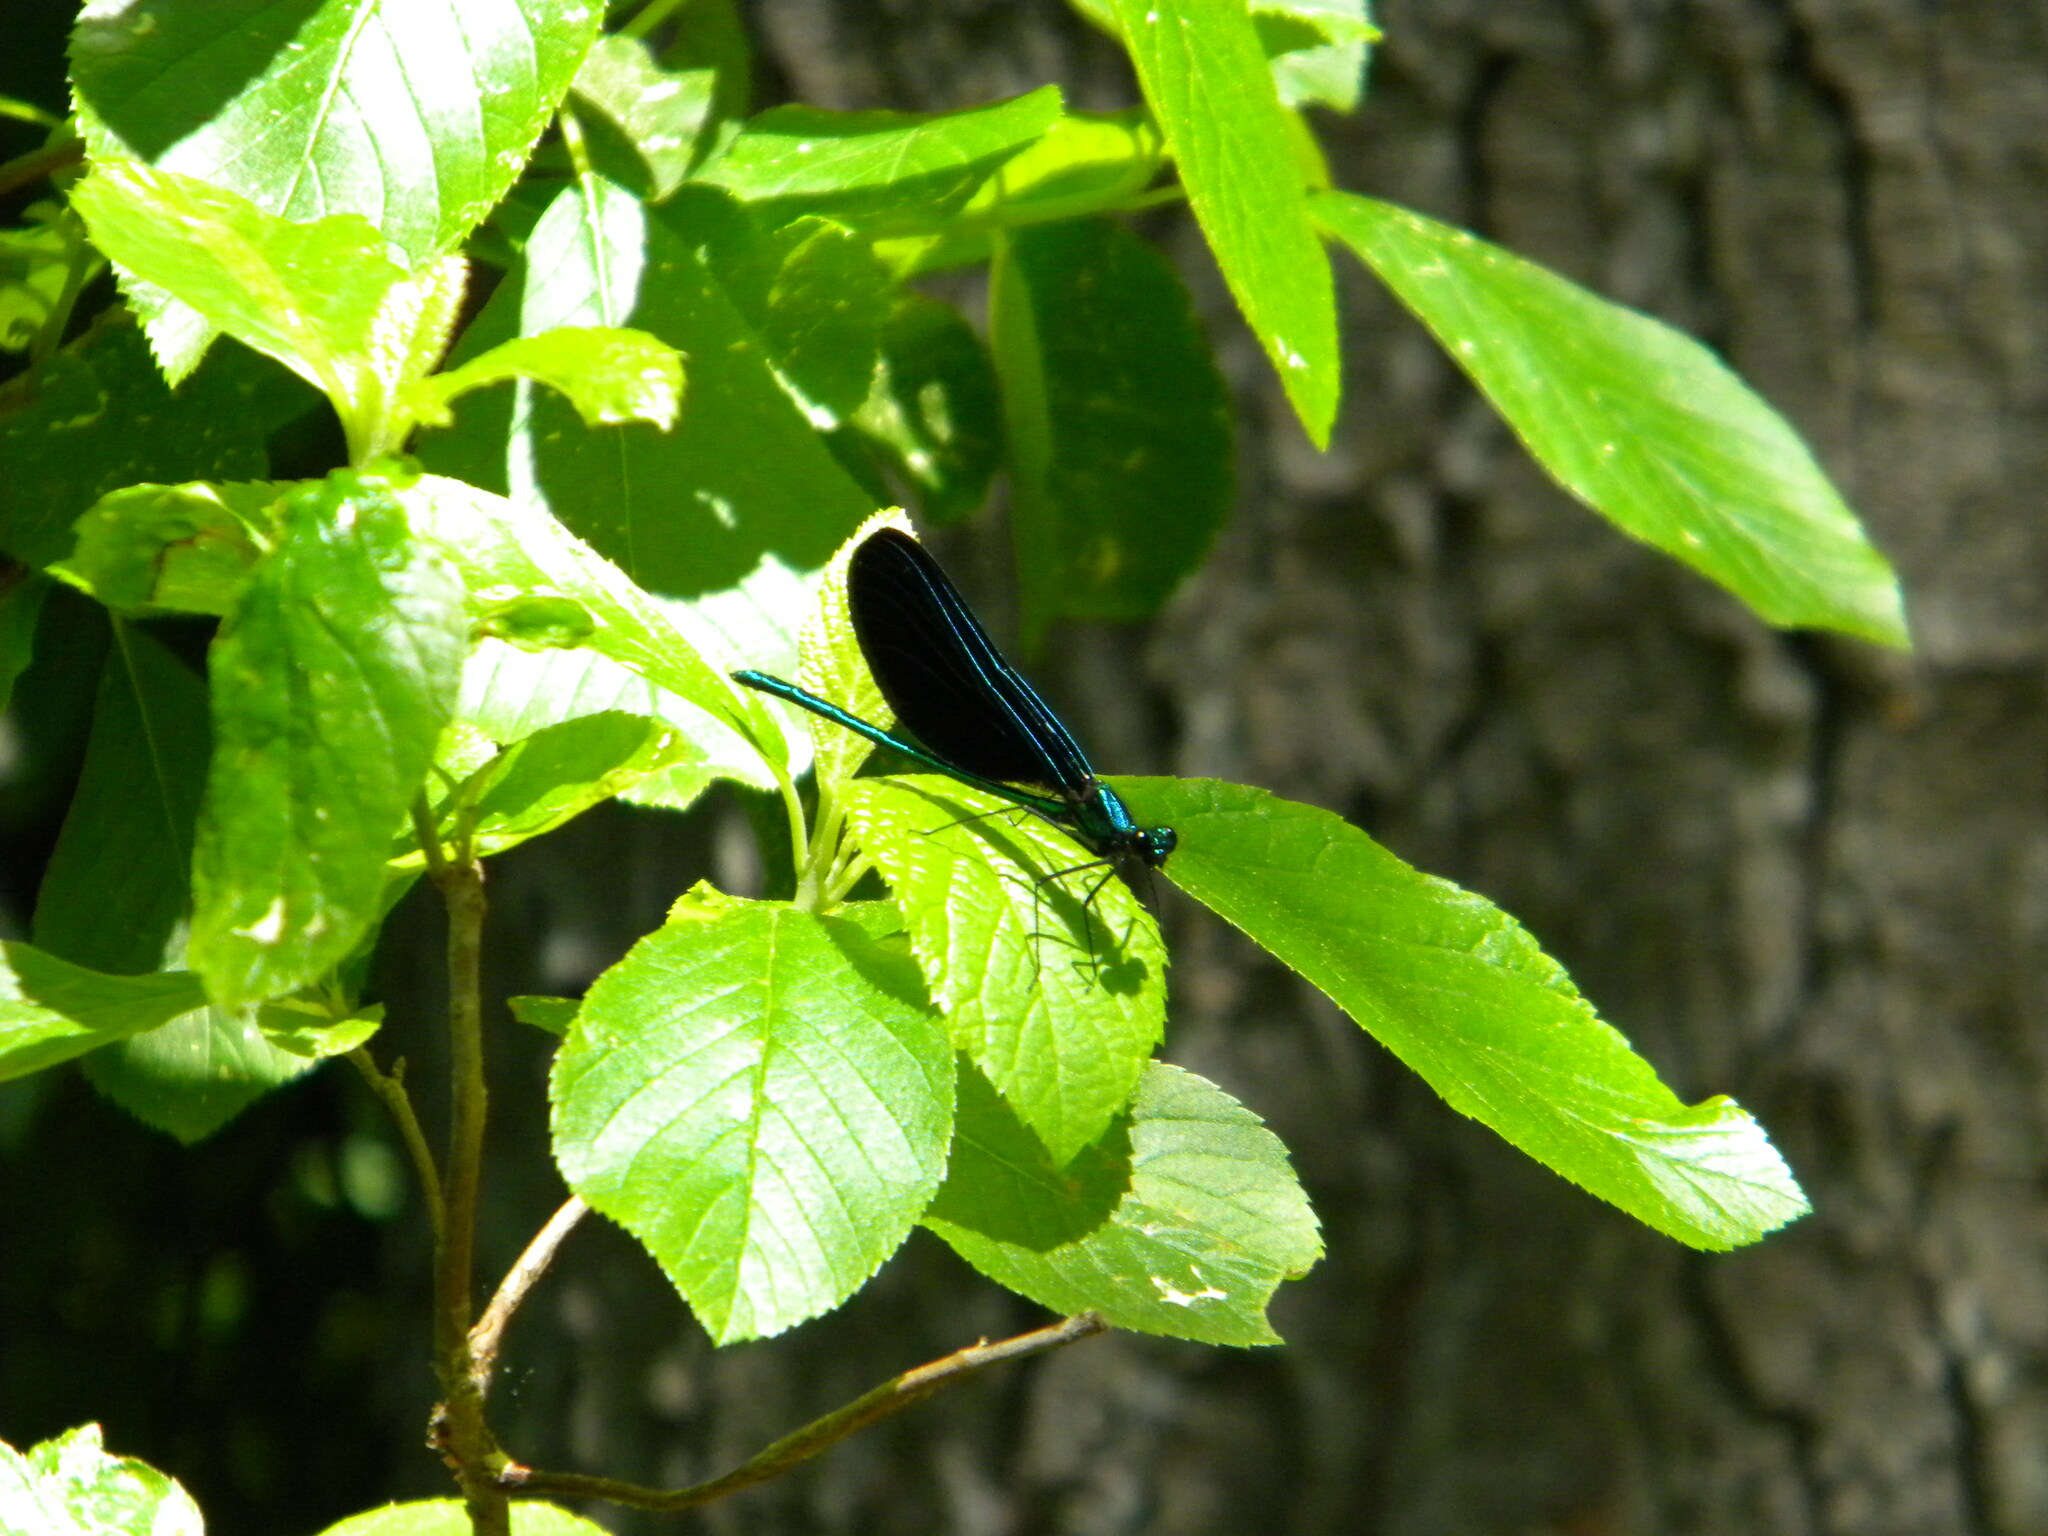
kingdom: Animalia
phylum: Arthropoda
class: Insecta
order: Odonata
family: Calopterygidae
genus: Calopteryx
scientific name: Calopteryx maculata
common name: Ebony jewelwing
